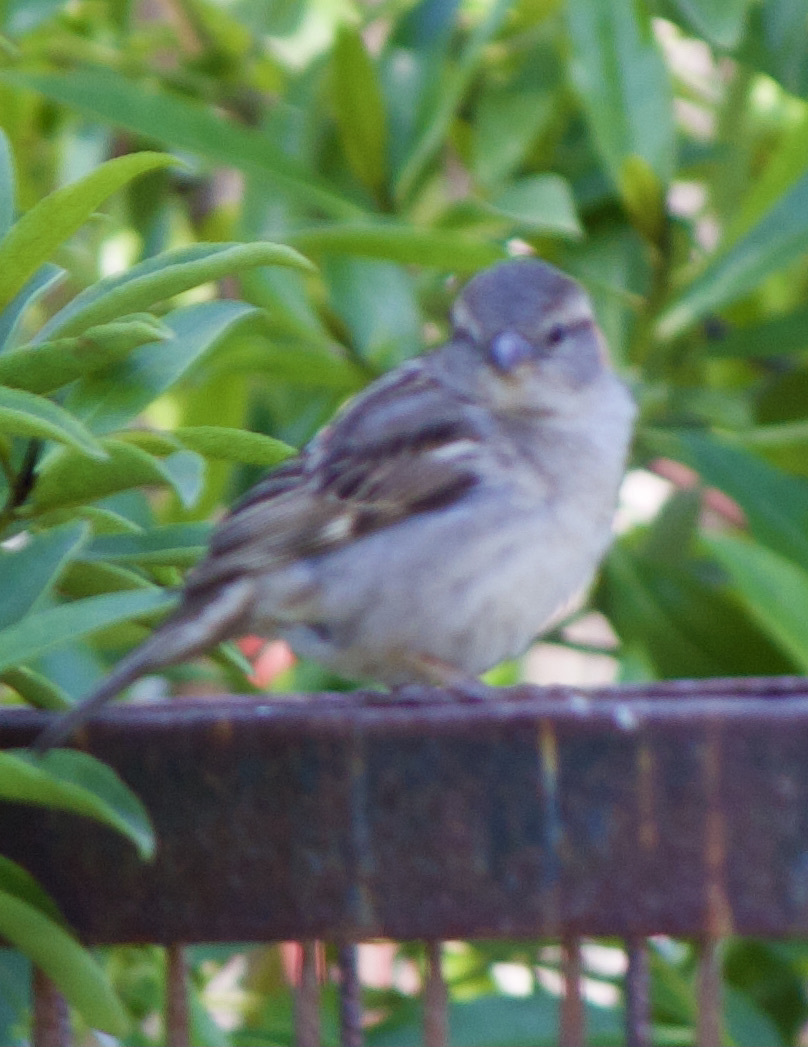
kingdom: Animalia
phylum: Chordata
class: Aves
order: Passeriformes
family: Passeridae
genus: Passer
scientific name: Passer domesticus
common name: House sparrow
